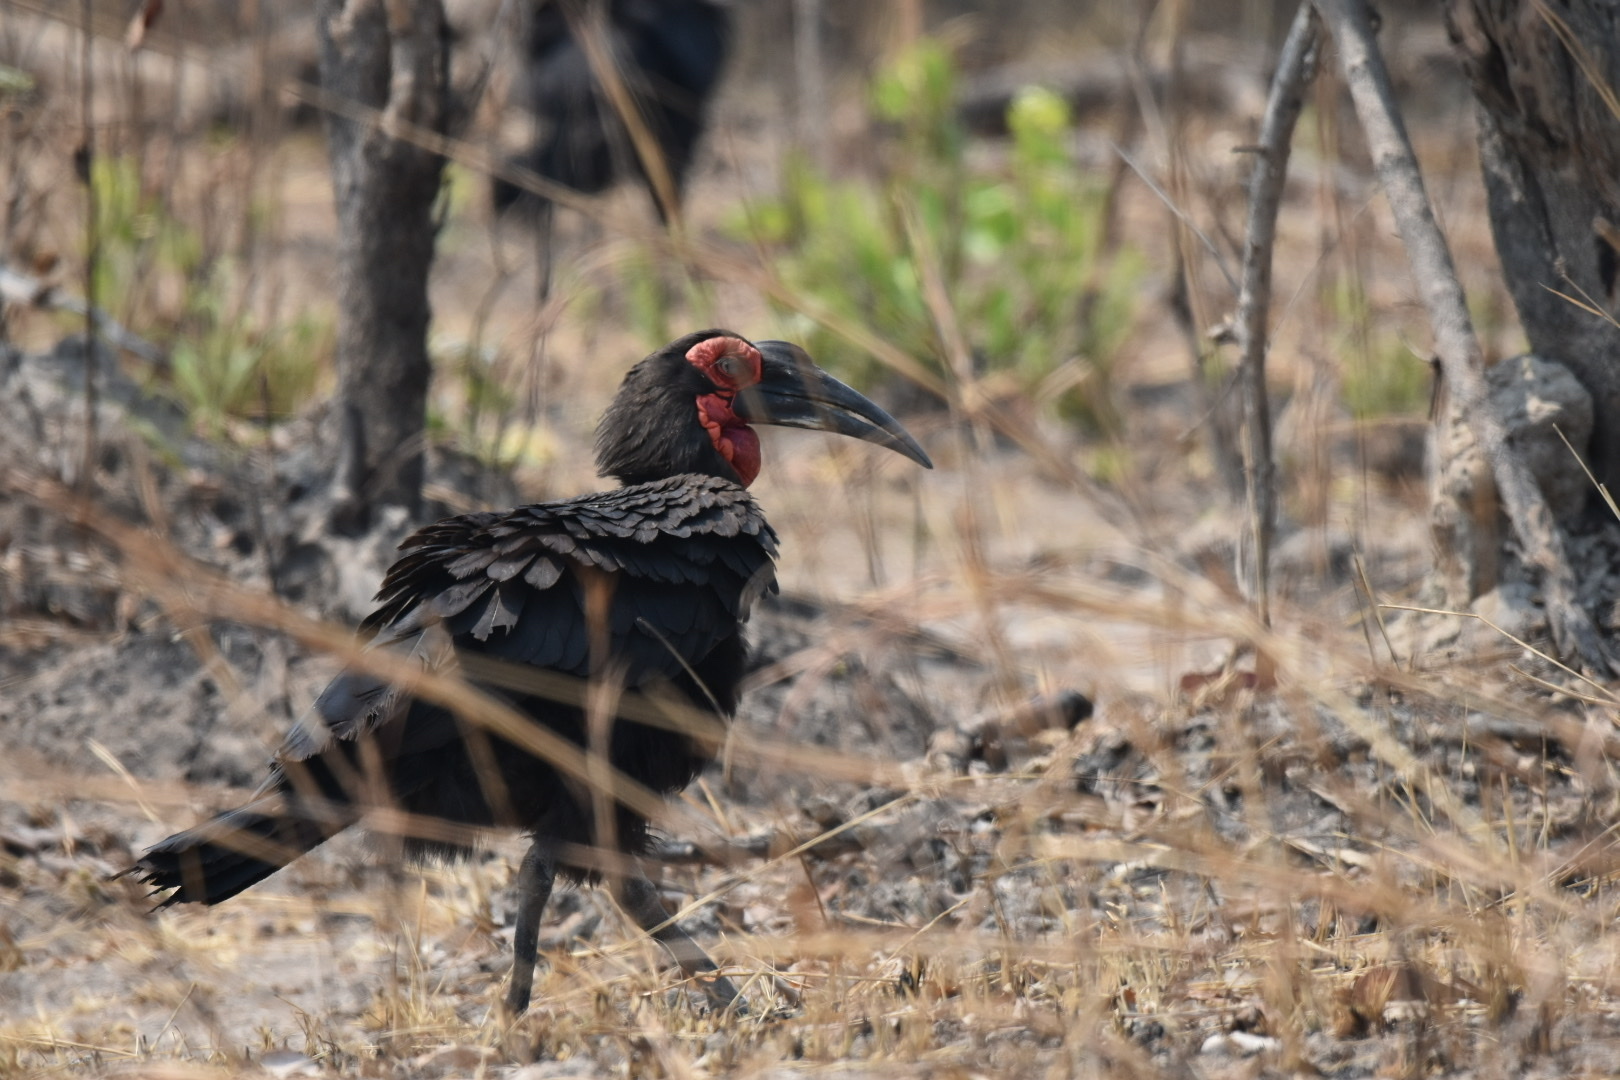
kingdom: Animalia
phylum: Chordata
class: Aves
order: Bucerotiformes
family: Bucorvidae
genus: Bucorvus
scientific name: Bucorvus leadbeateri
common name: Southern ground-hornbill
